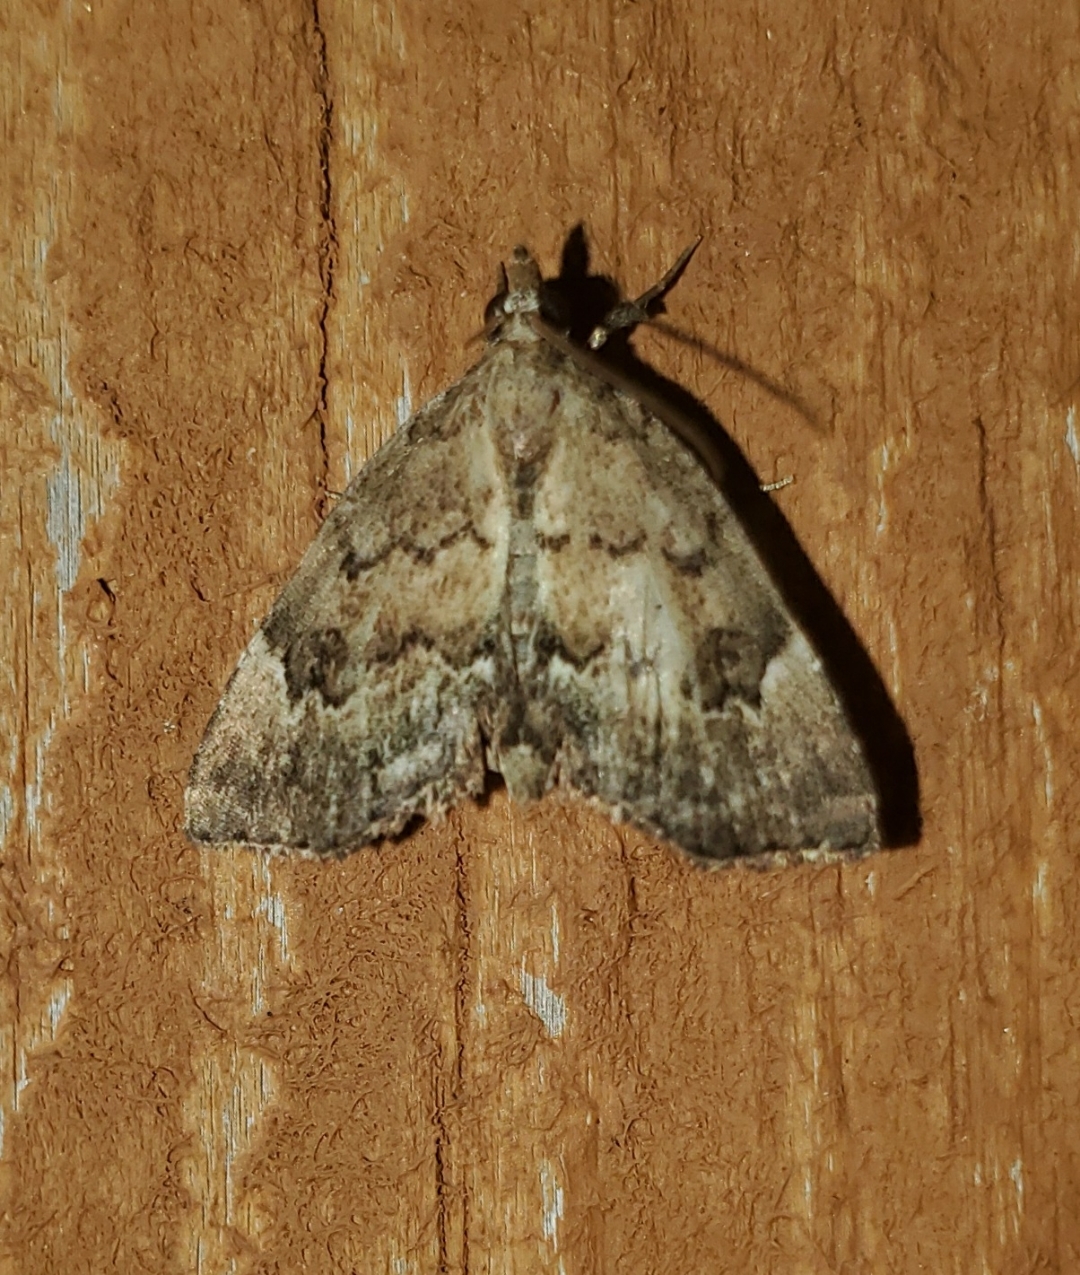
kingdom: Animalia
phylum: Arthropoda
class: Insecta
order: Lepidoptera
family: Erebidae
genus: Cutina
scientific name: Cutina aluticolor
